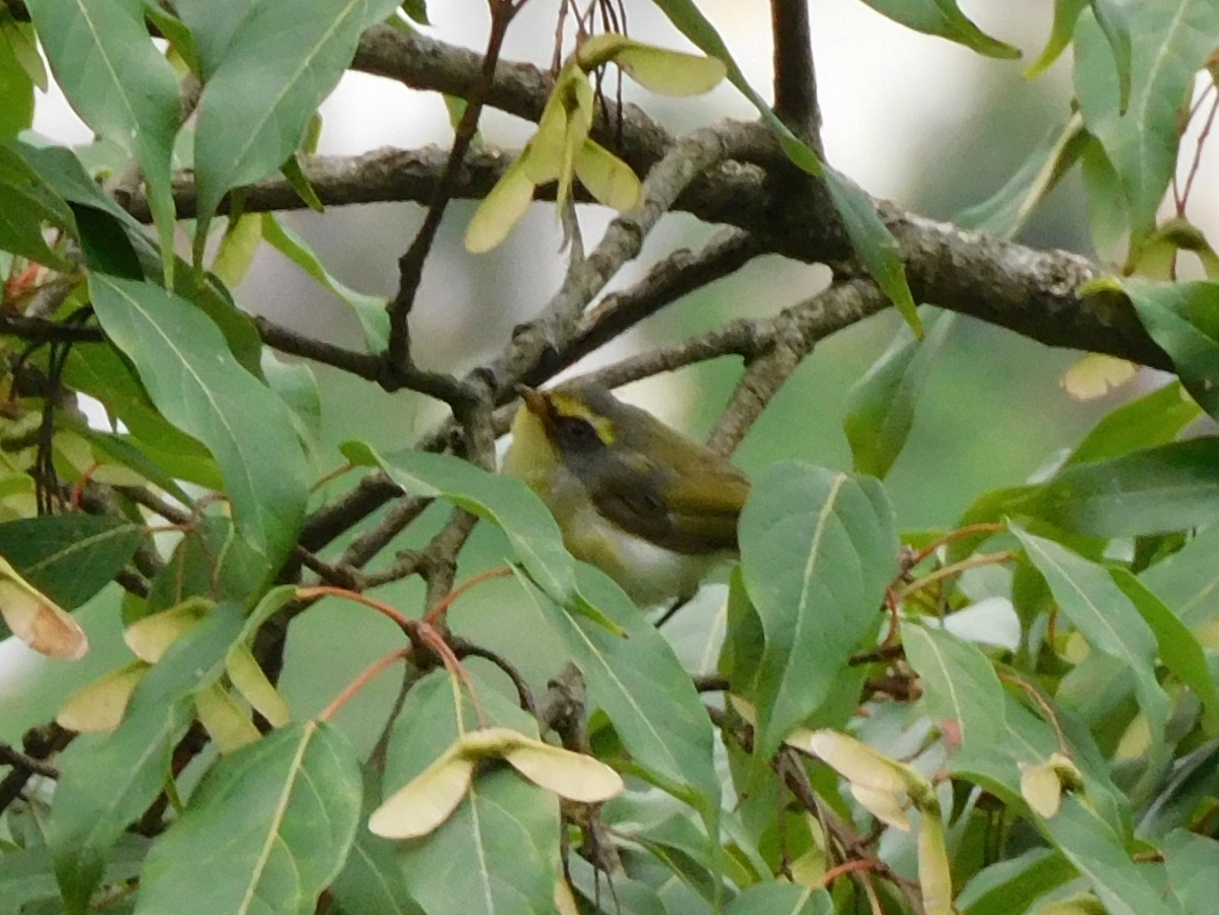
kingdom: Animalia
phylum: Chordata
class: Aves
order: Passeriformes
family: Cettiidae
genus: Abroscopus
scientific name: Abroscopus schisticeps
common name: Black-faced warbler
